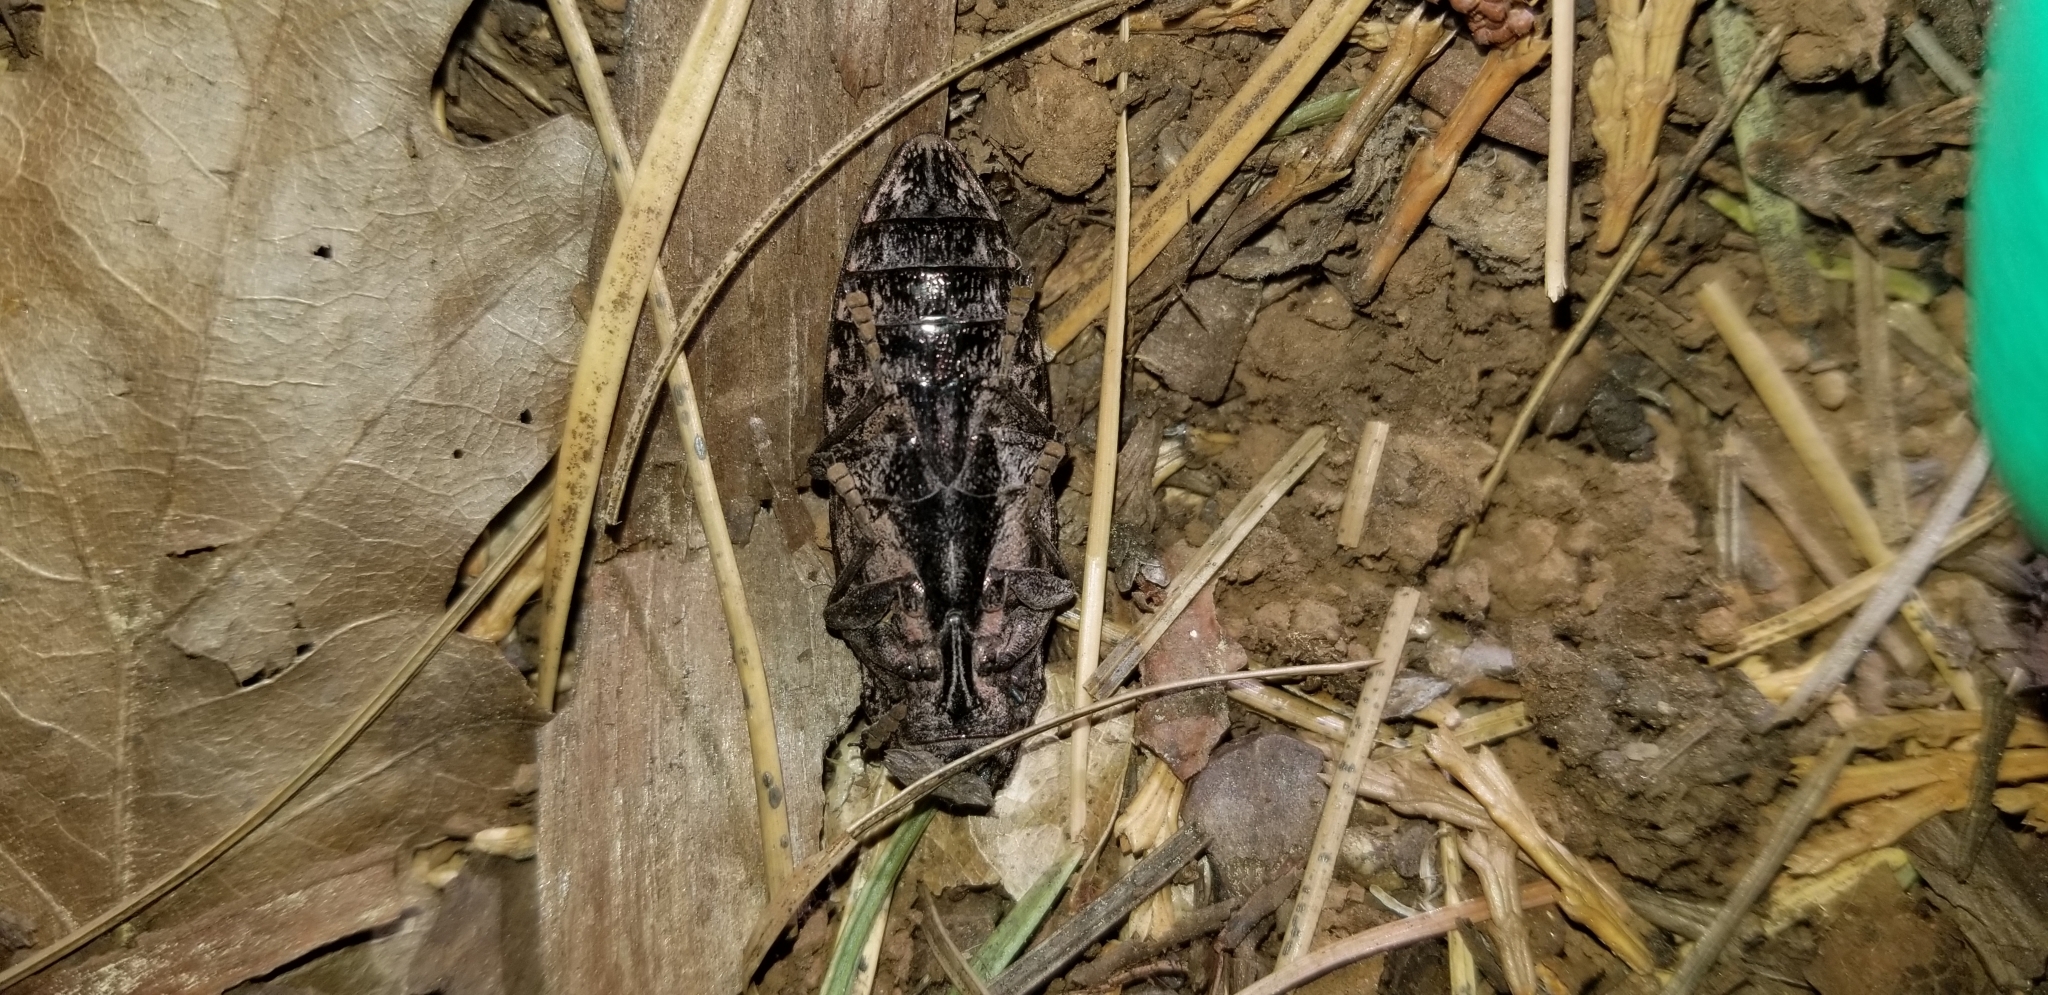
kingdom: Animalia
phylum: Arthropoda
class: Insecta
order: Coleoptera
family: Buprestidae
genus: Chalcophora
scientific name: Chalcophora angulicollis
